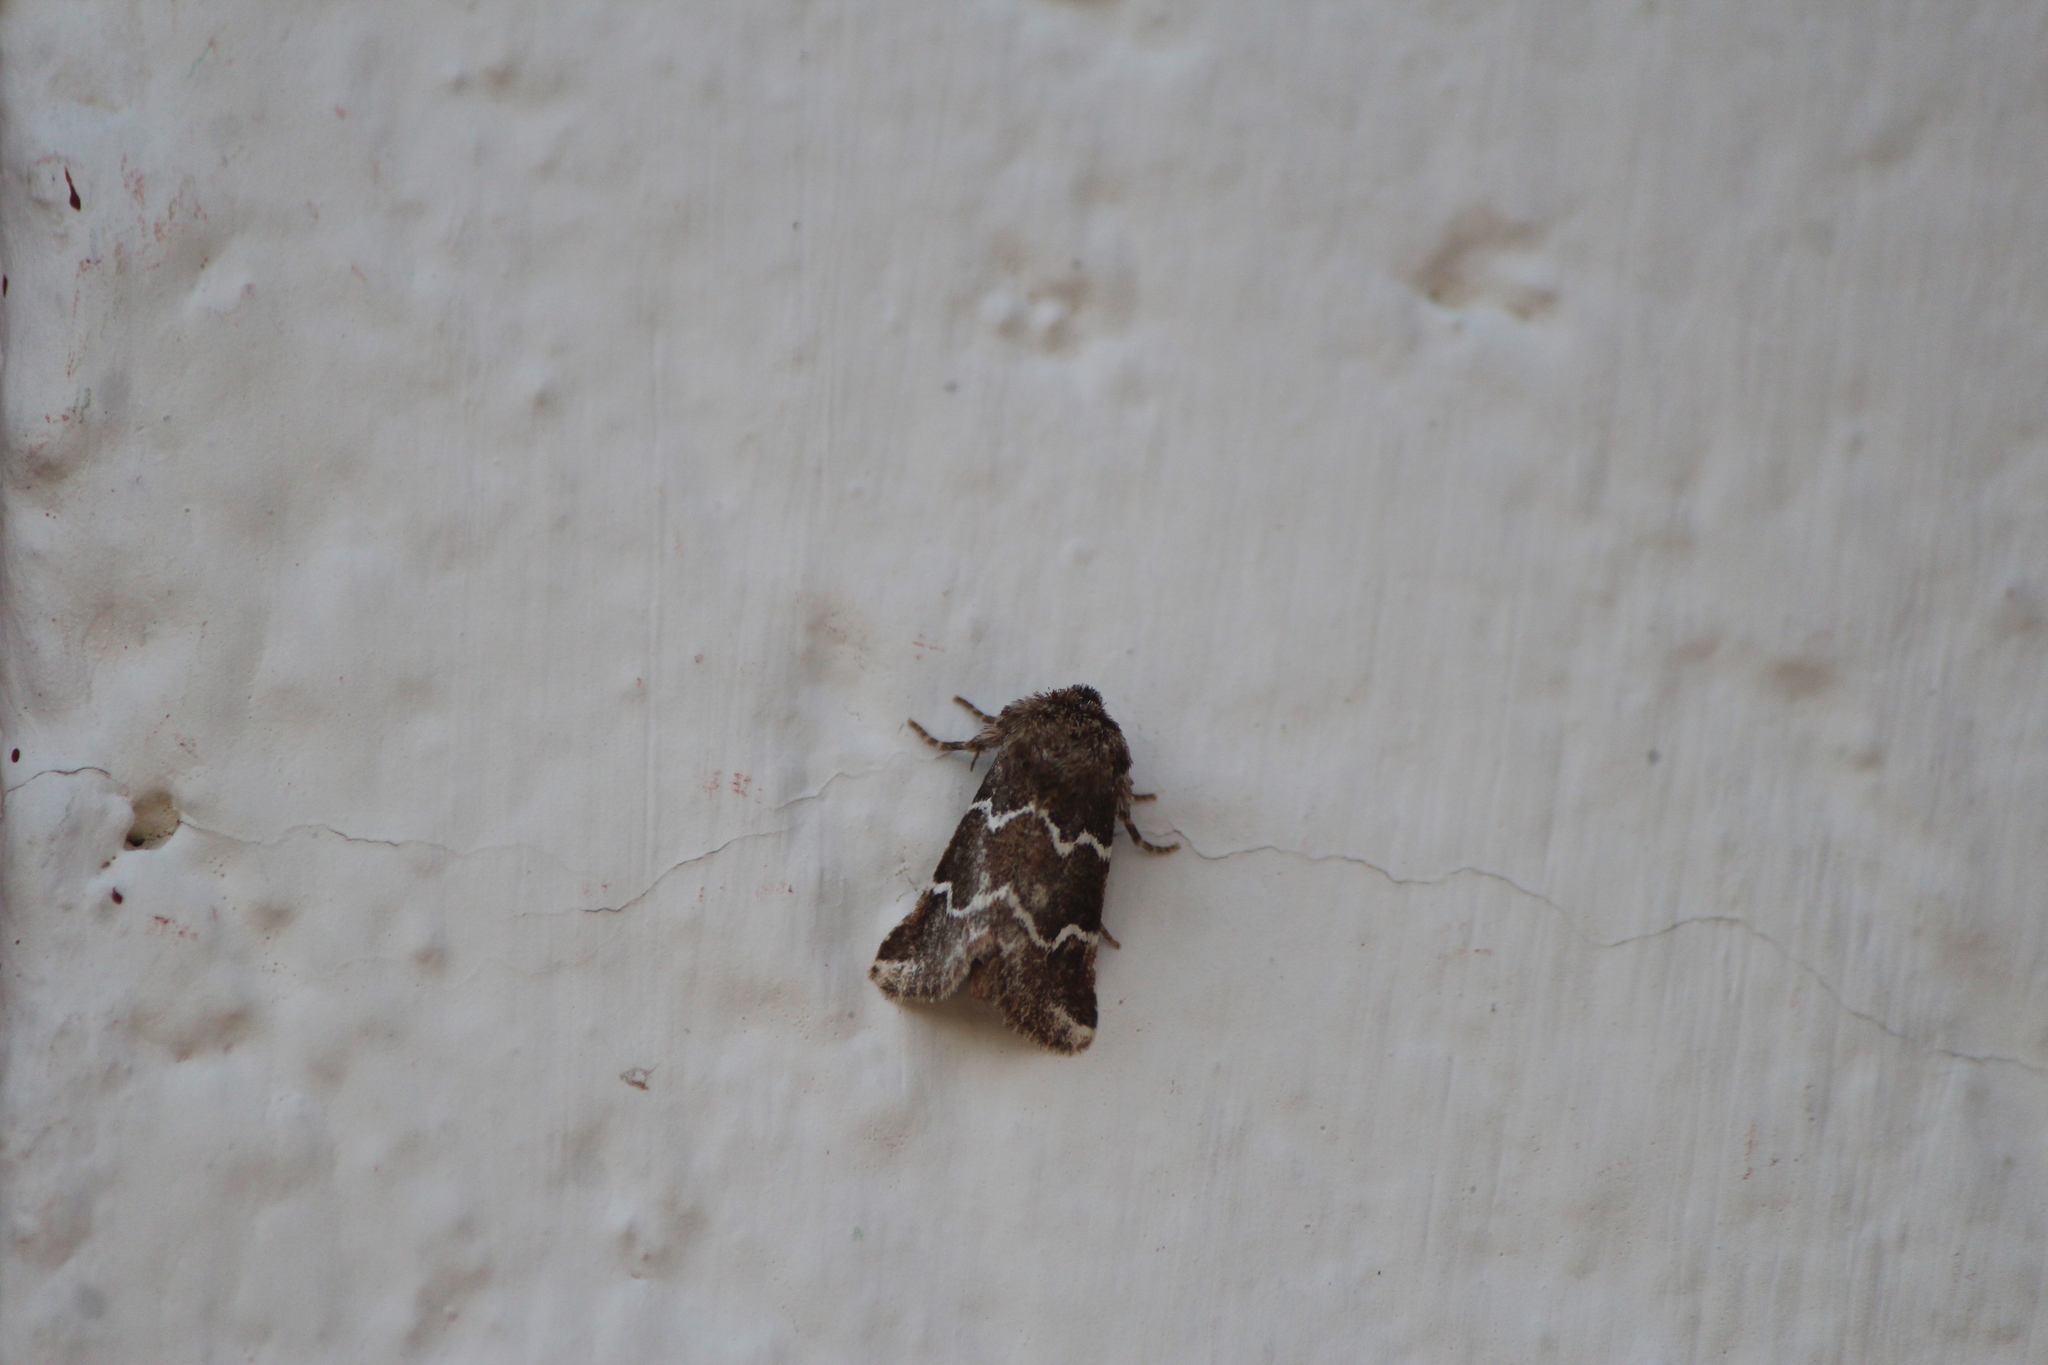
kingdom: Animalia
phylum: Arthropoda
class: Insecta
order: Lepidoptera
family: Noctuidae
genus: Nacopa
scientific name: Nacopa bistrigata
